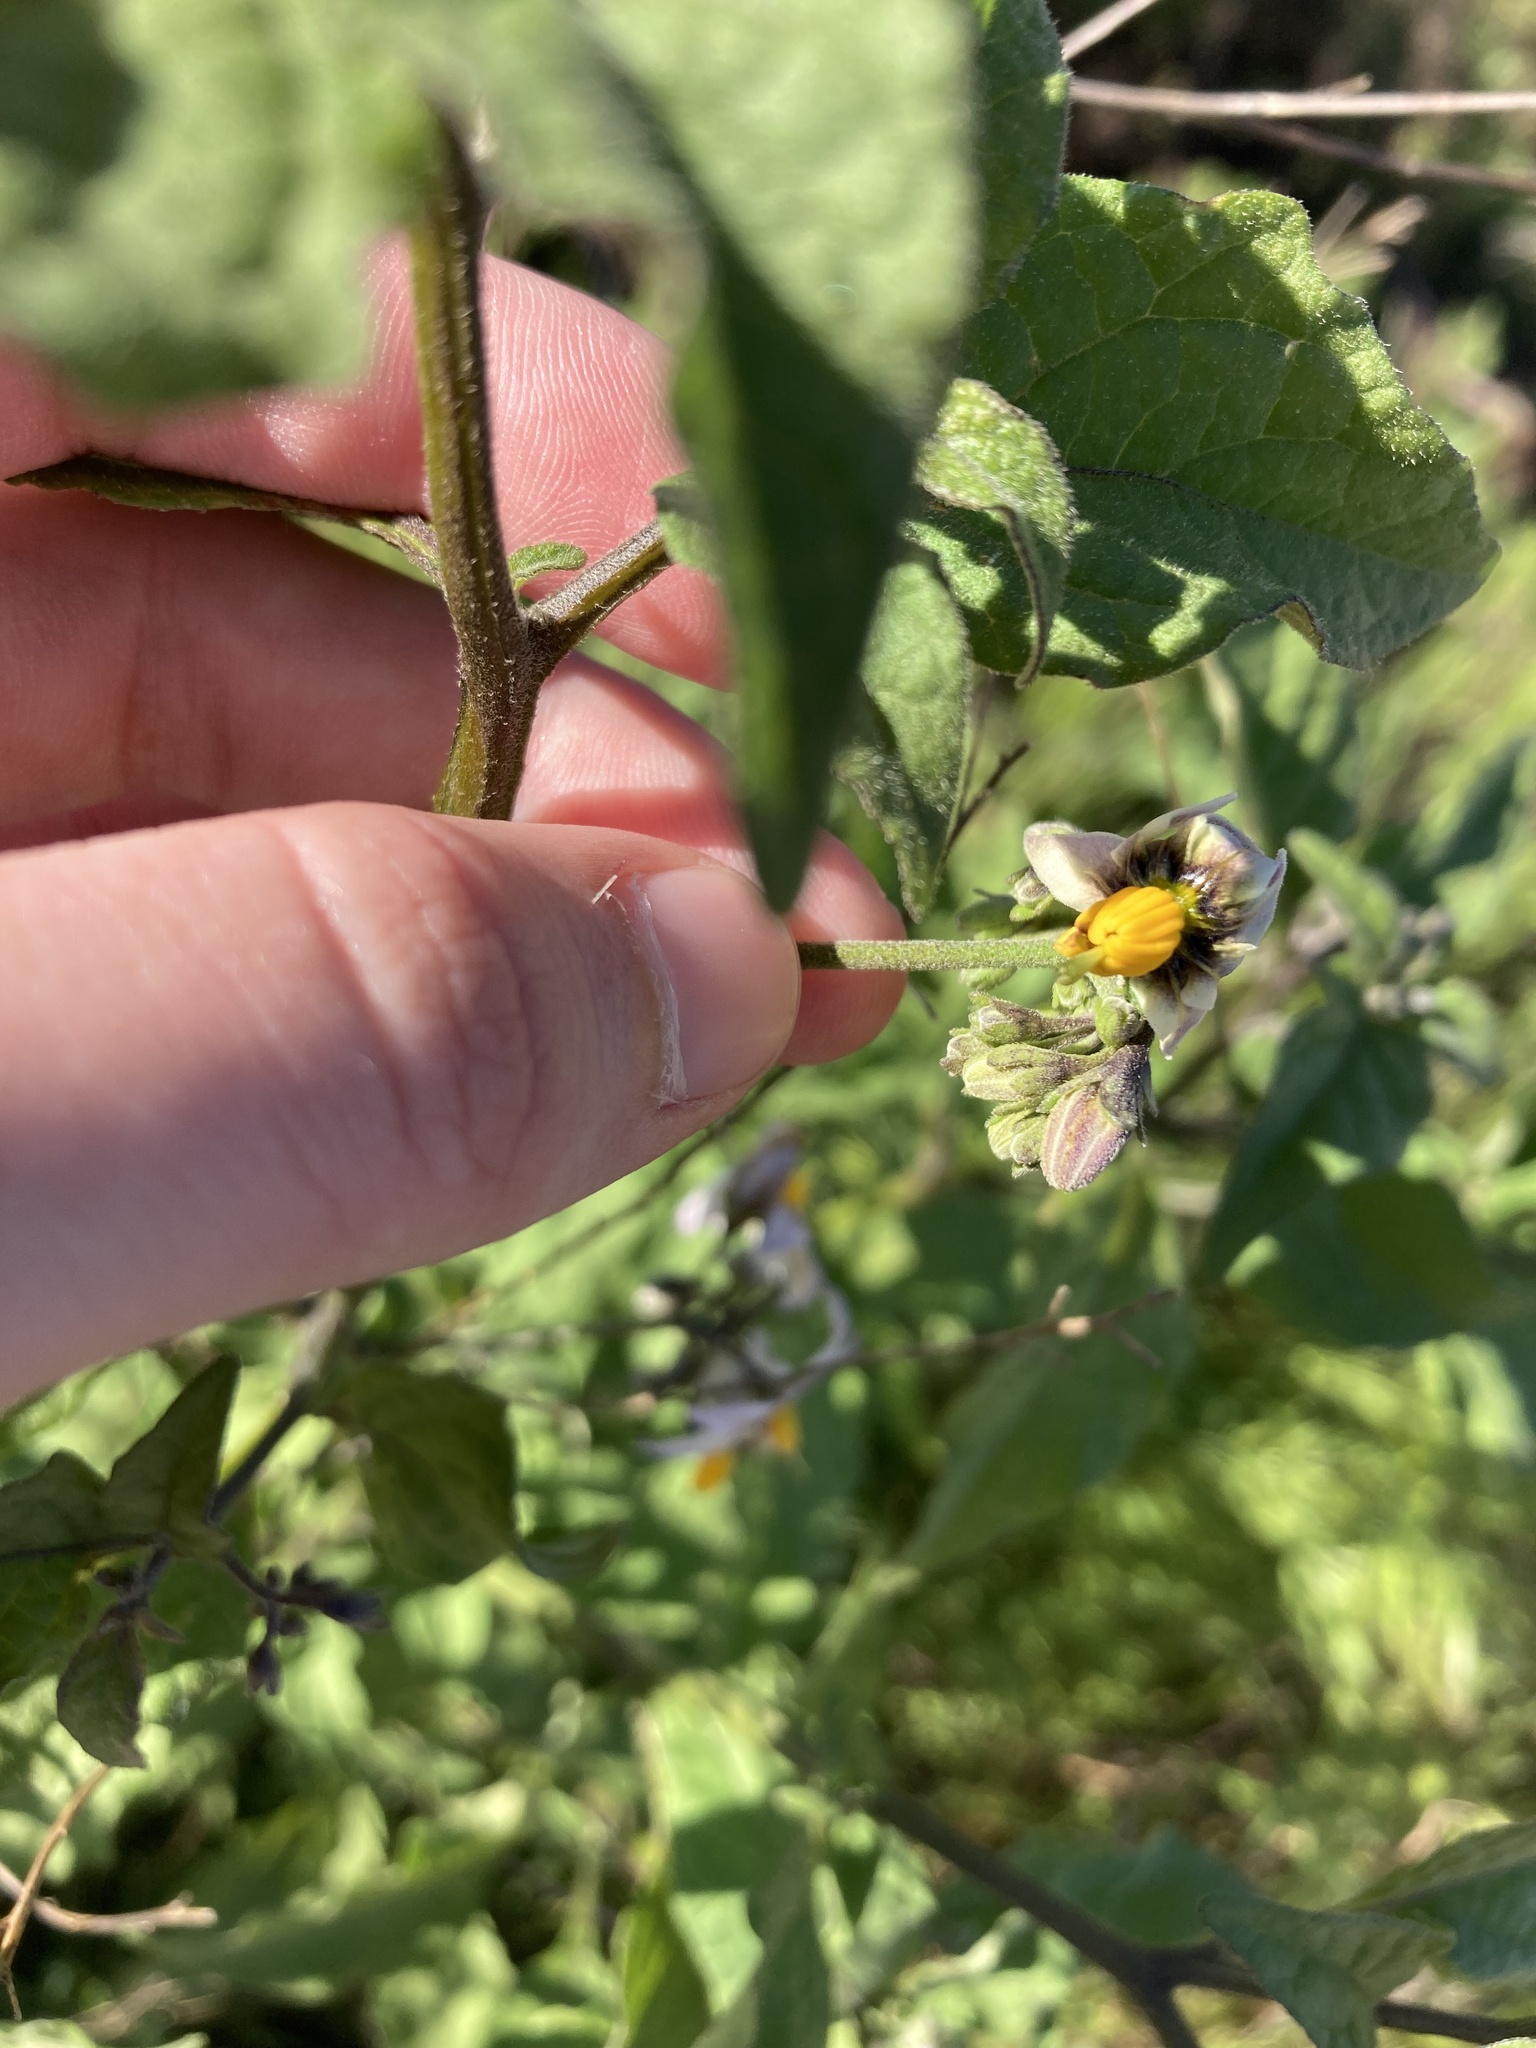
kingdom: Plantae
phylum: Tracheophyta
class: Magnoliopsida
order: Solanales
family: Solanaceae
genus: Solanum
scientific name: Solanum douglasii
